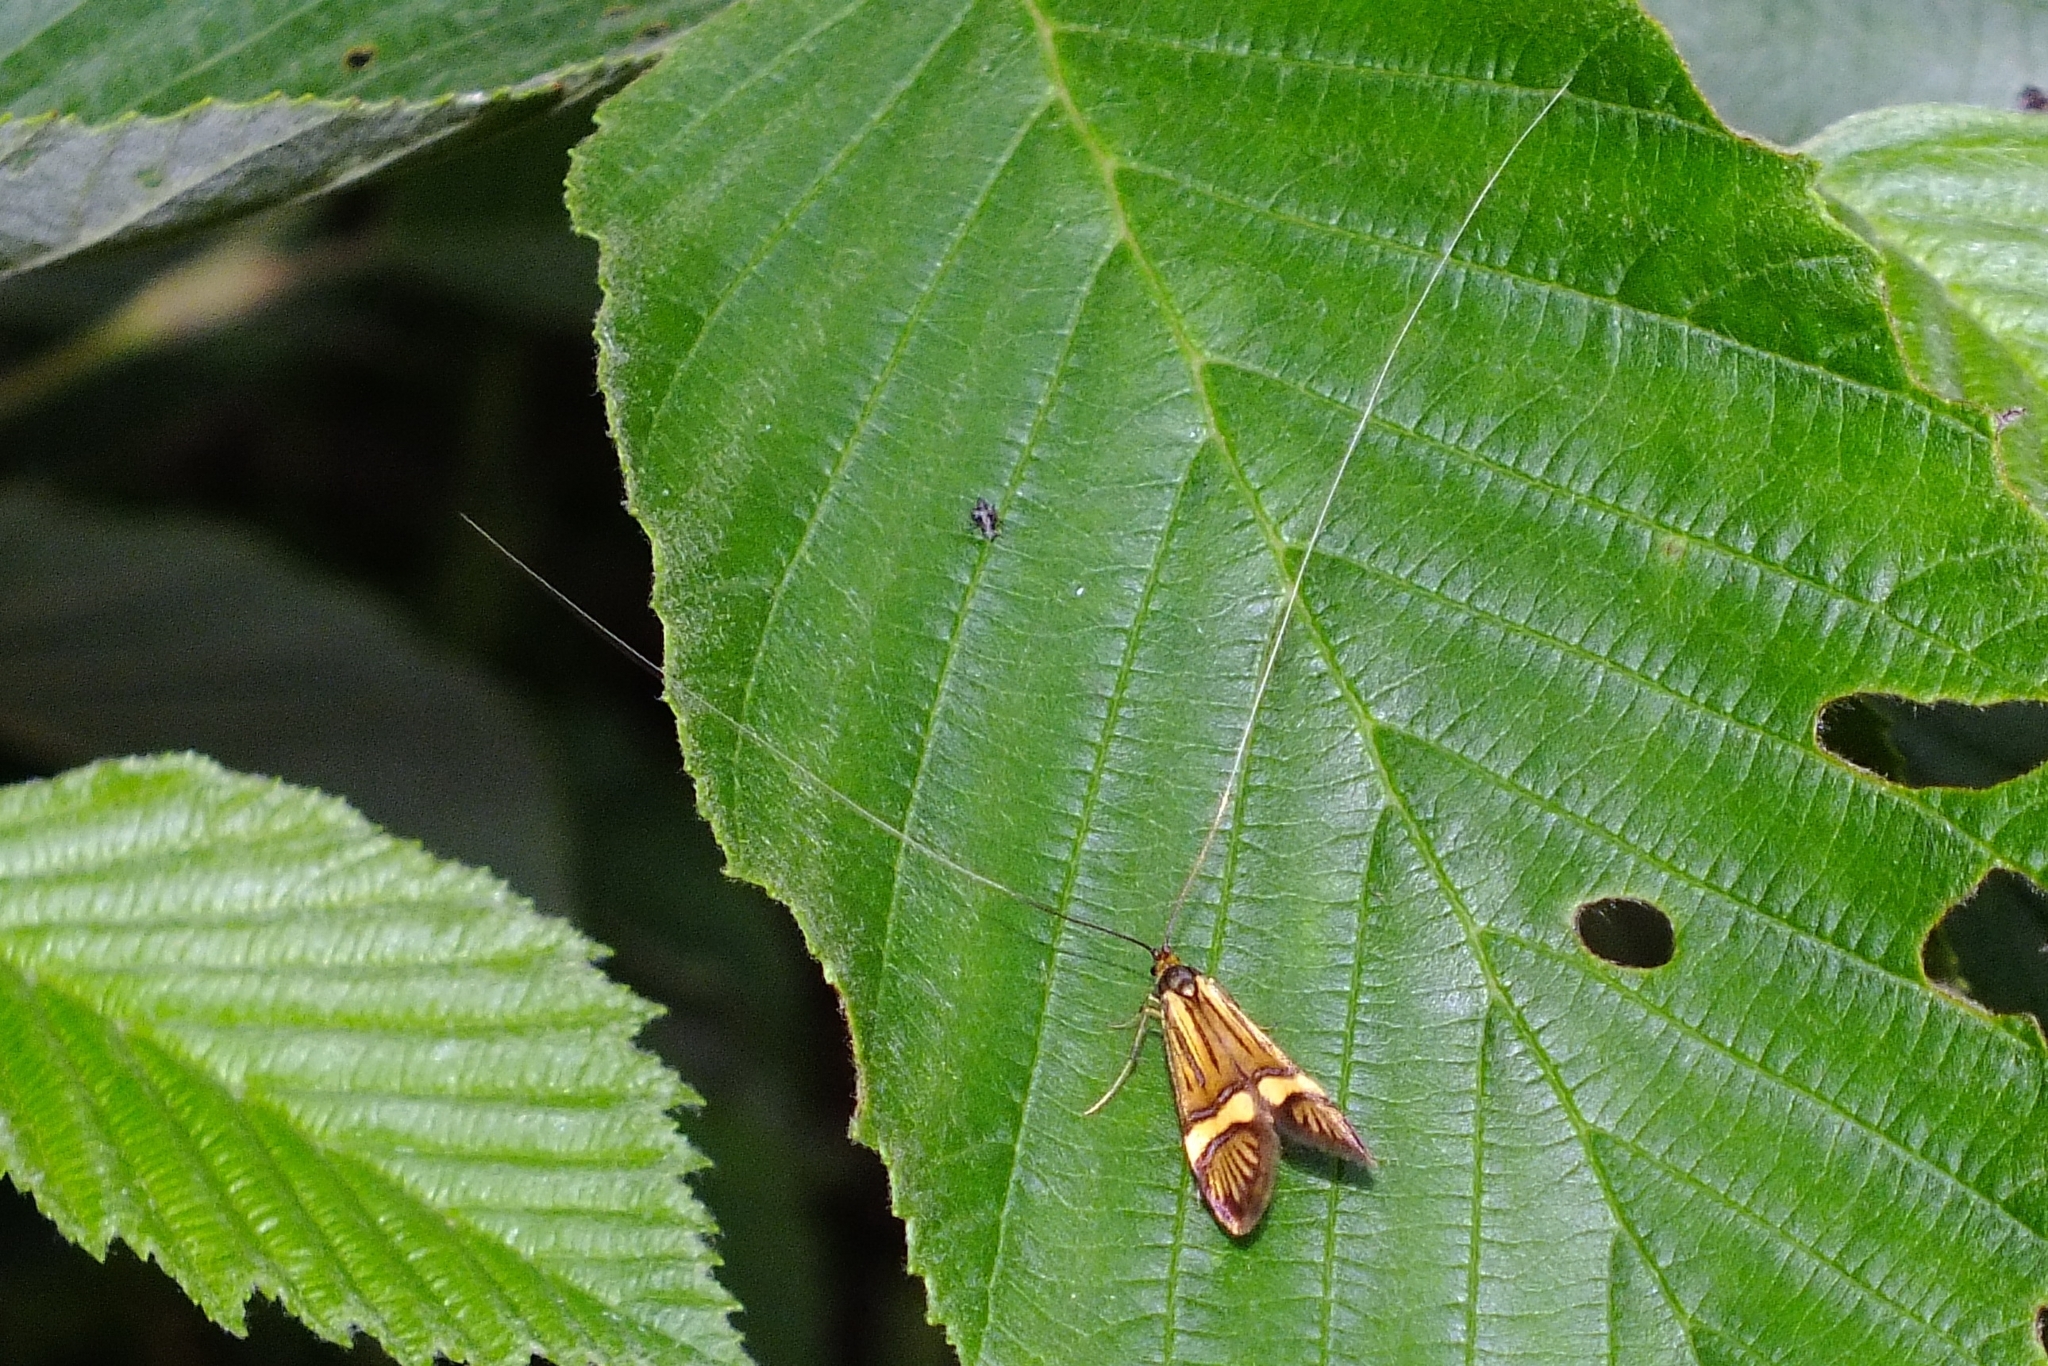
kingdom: Animalia
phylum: Arthropoda
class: Insecta
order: Lepidoptera
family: Adelidae
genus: Nemophora
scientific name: Nemophora degeerella
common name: Yellow-barred long-horn
